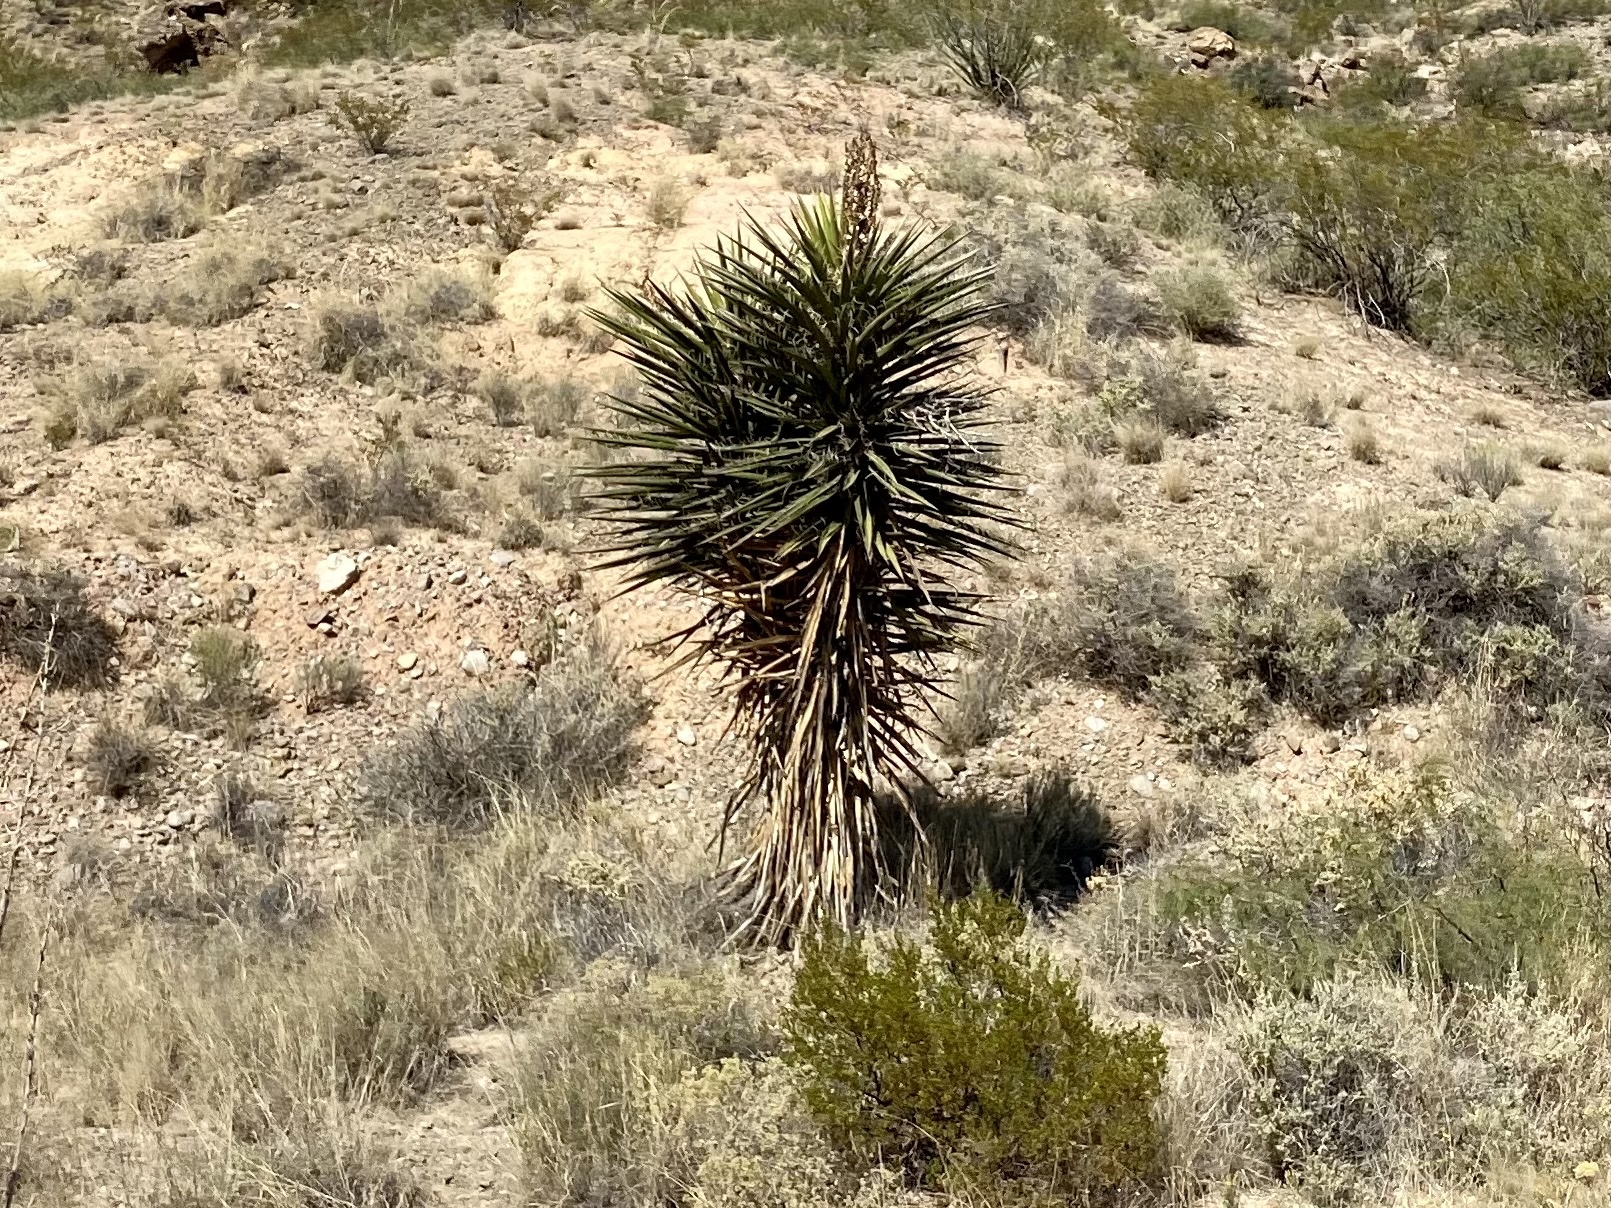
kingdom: Plantae
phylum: Tracheophyta
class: Liliopsida
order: Asparagales
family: Asparagaceae
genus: Yucca
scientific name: Yucca treculiana
